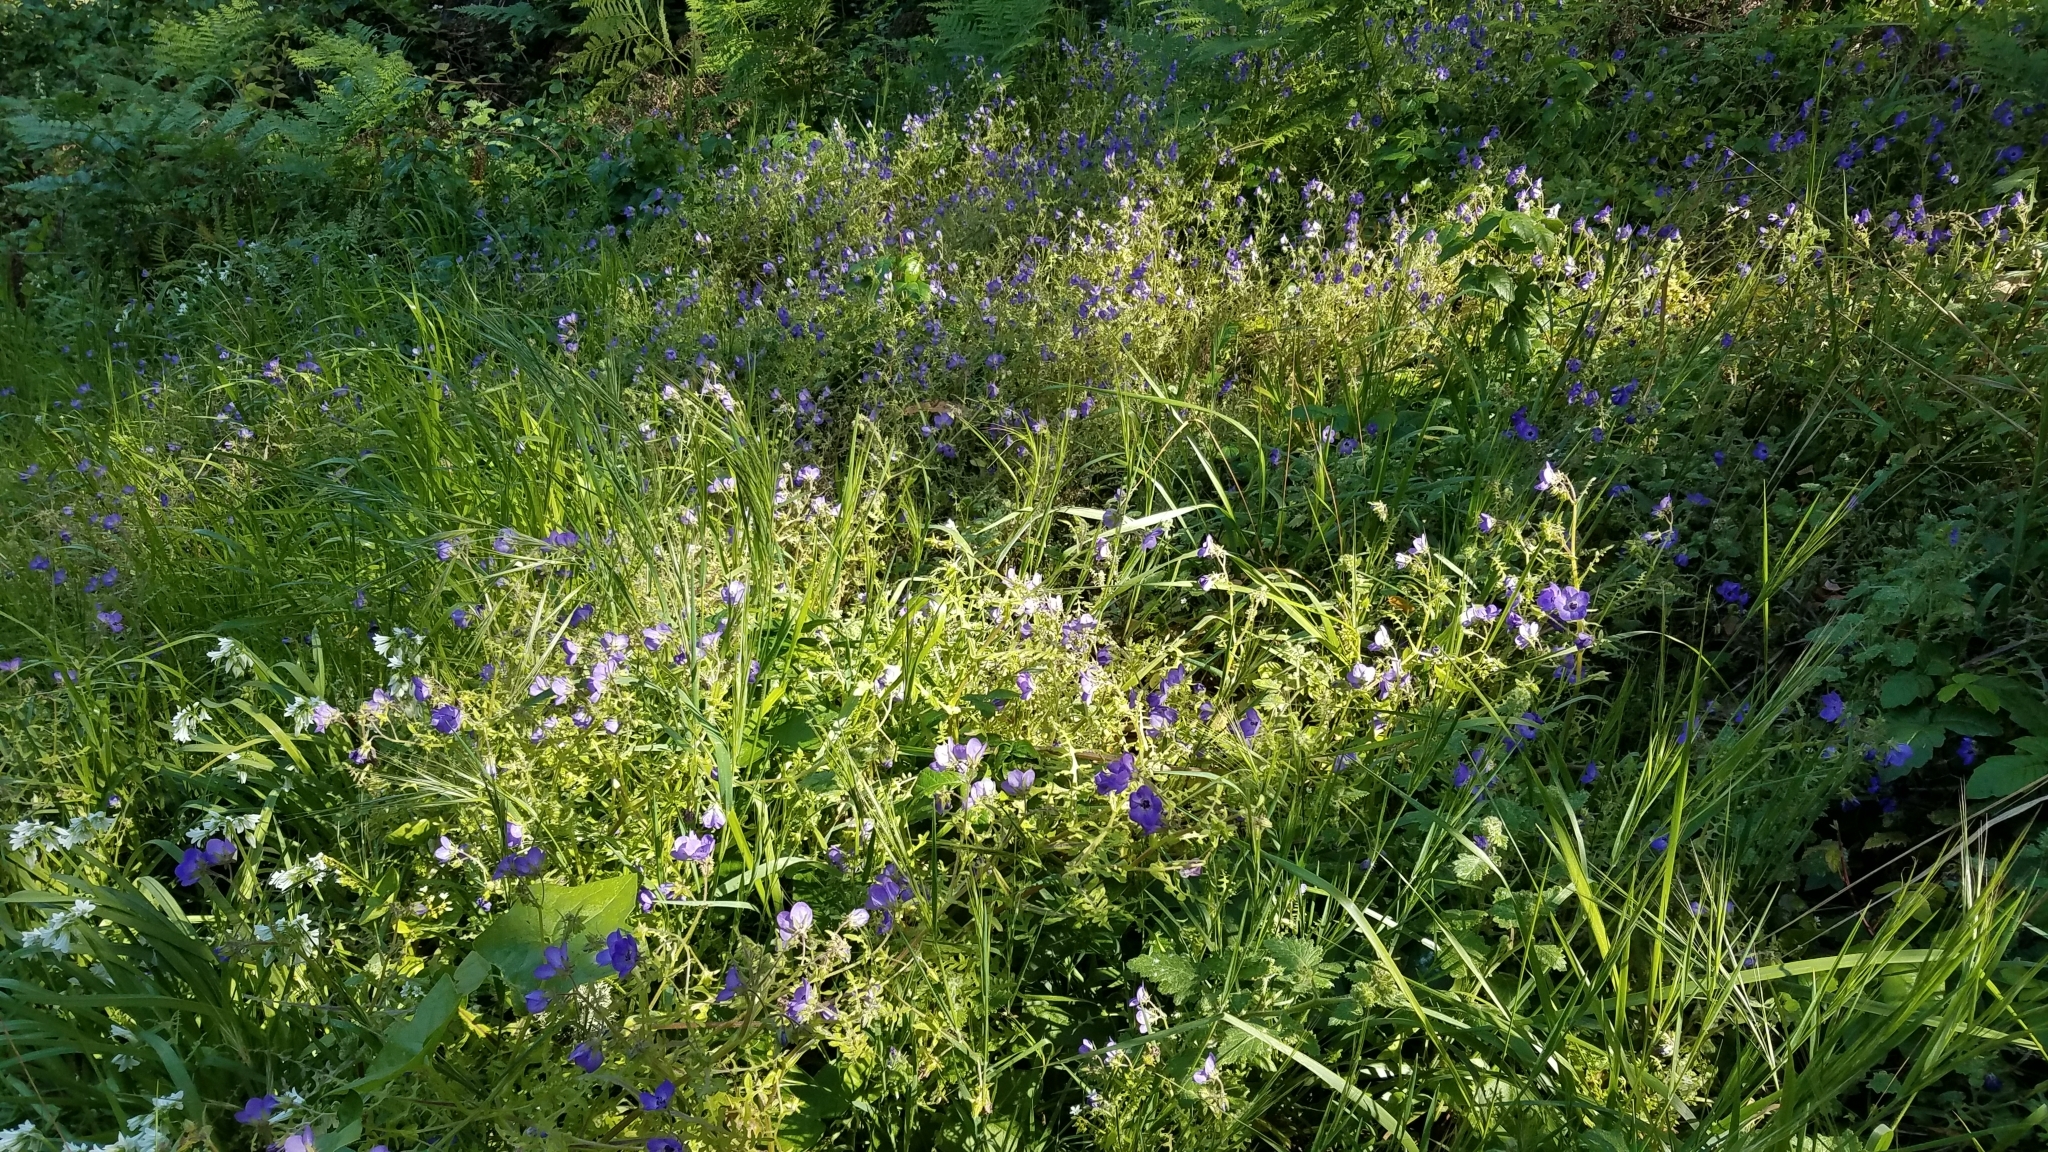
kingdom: Plantae
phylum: Tracheophyta
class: Magnoliopsida
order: Boraginales
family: Hydrophyllaceae
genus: Pholistoma
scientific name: Pholistoma auritum
